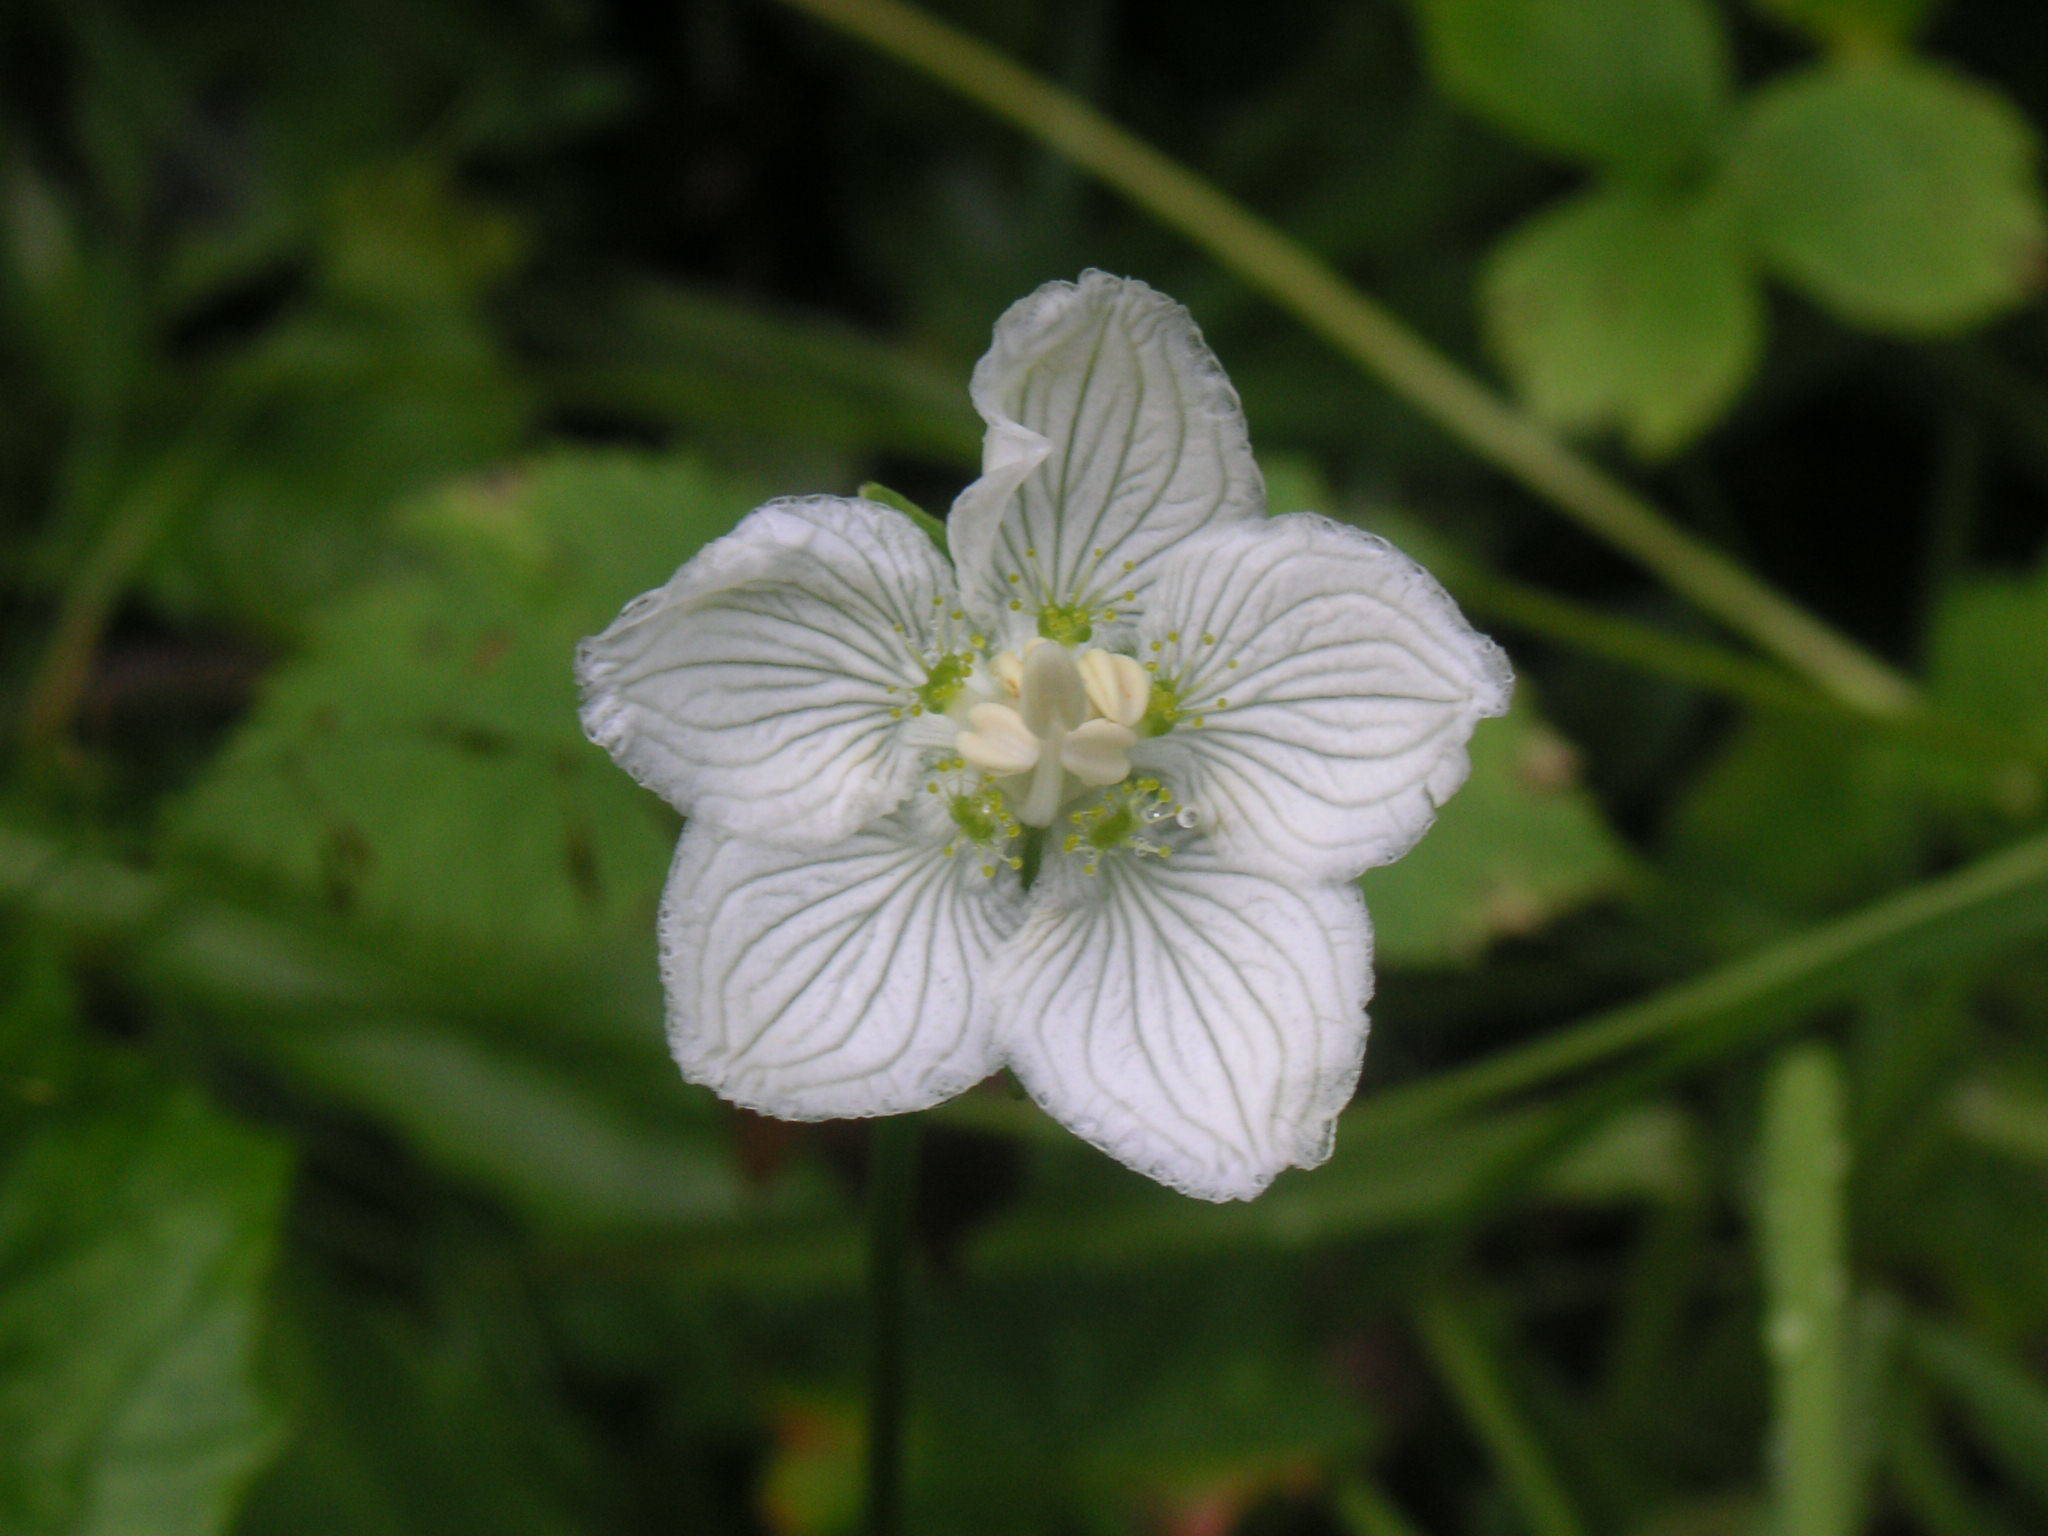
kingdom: Plantae
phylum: Tracheophyta
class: Magnoliopsida
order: Celastrales
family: Parnassiaceae
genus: Parnassia
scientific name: Parnassia palustris
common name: Grass-of-parnassus
